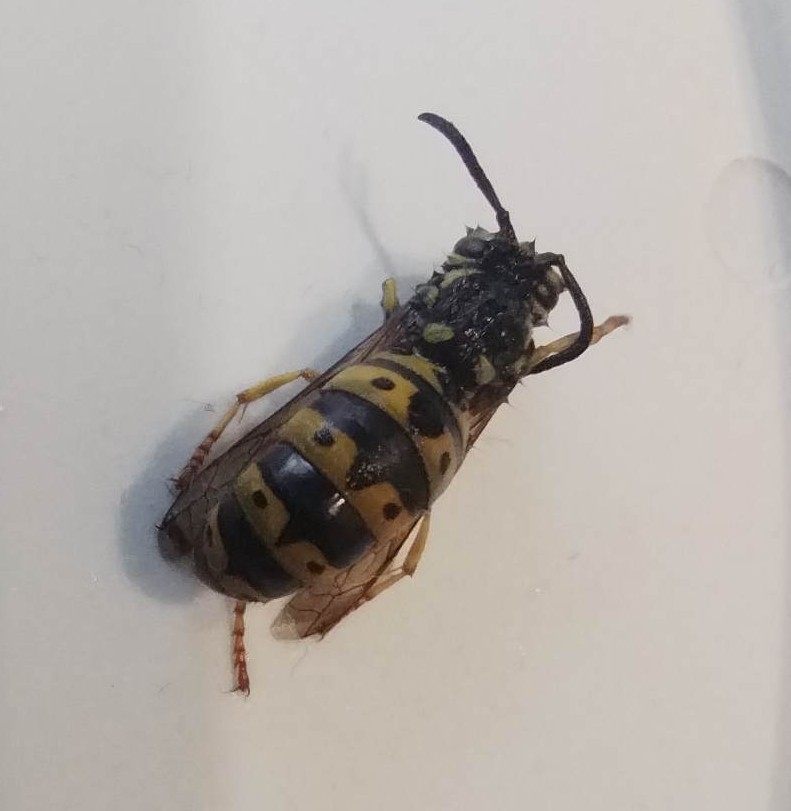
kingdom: Animalia
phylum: Arthropoda
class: Insecta
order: Hymenoptera
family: Vespidae
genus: Vespula
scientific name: Vespula germanica
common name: German wasp
